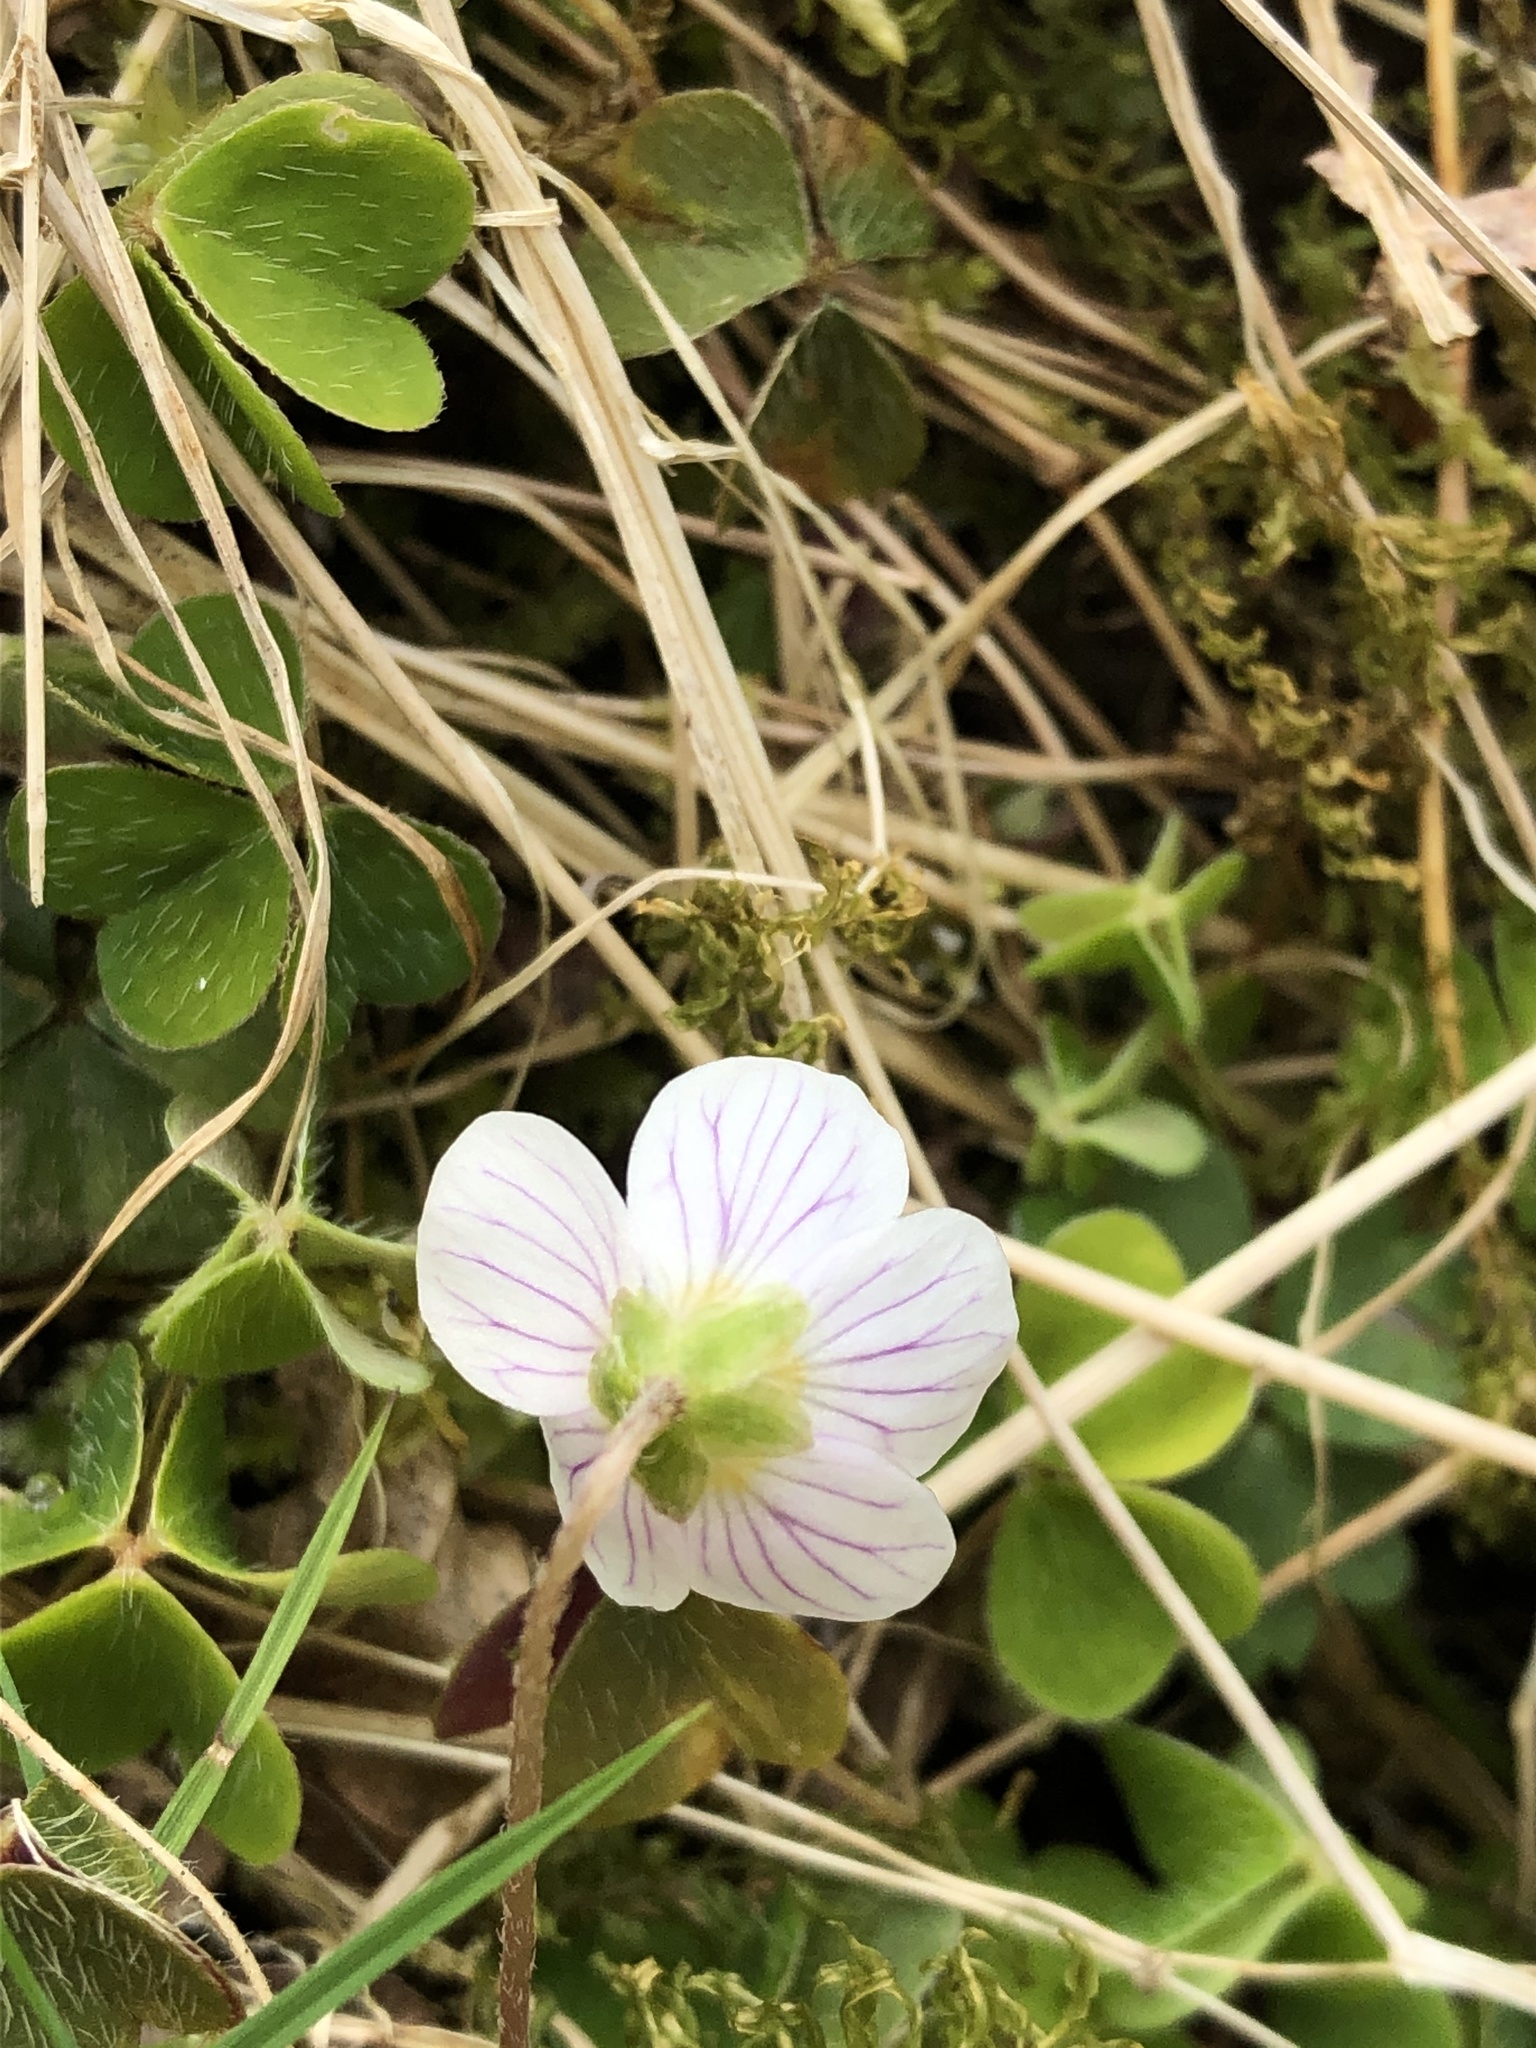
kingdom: Plantae
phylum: Tracheophyta
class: Magnoliopsida
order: Oxalidales
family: Oxalidaceae
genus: Oxalis
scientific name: Oxalis acetosella
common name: Wood-sorrel
